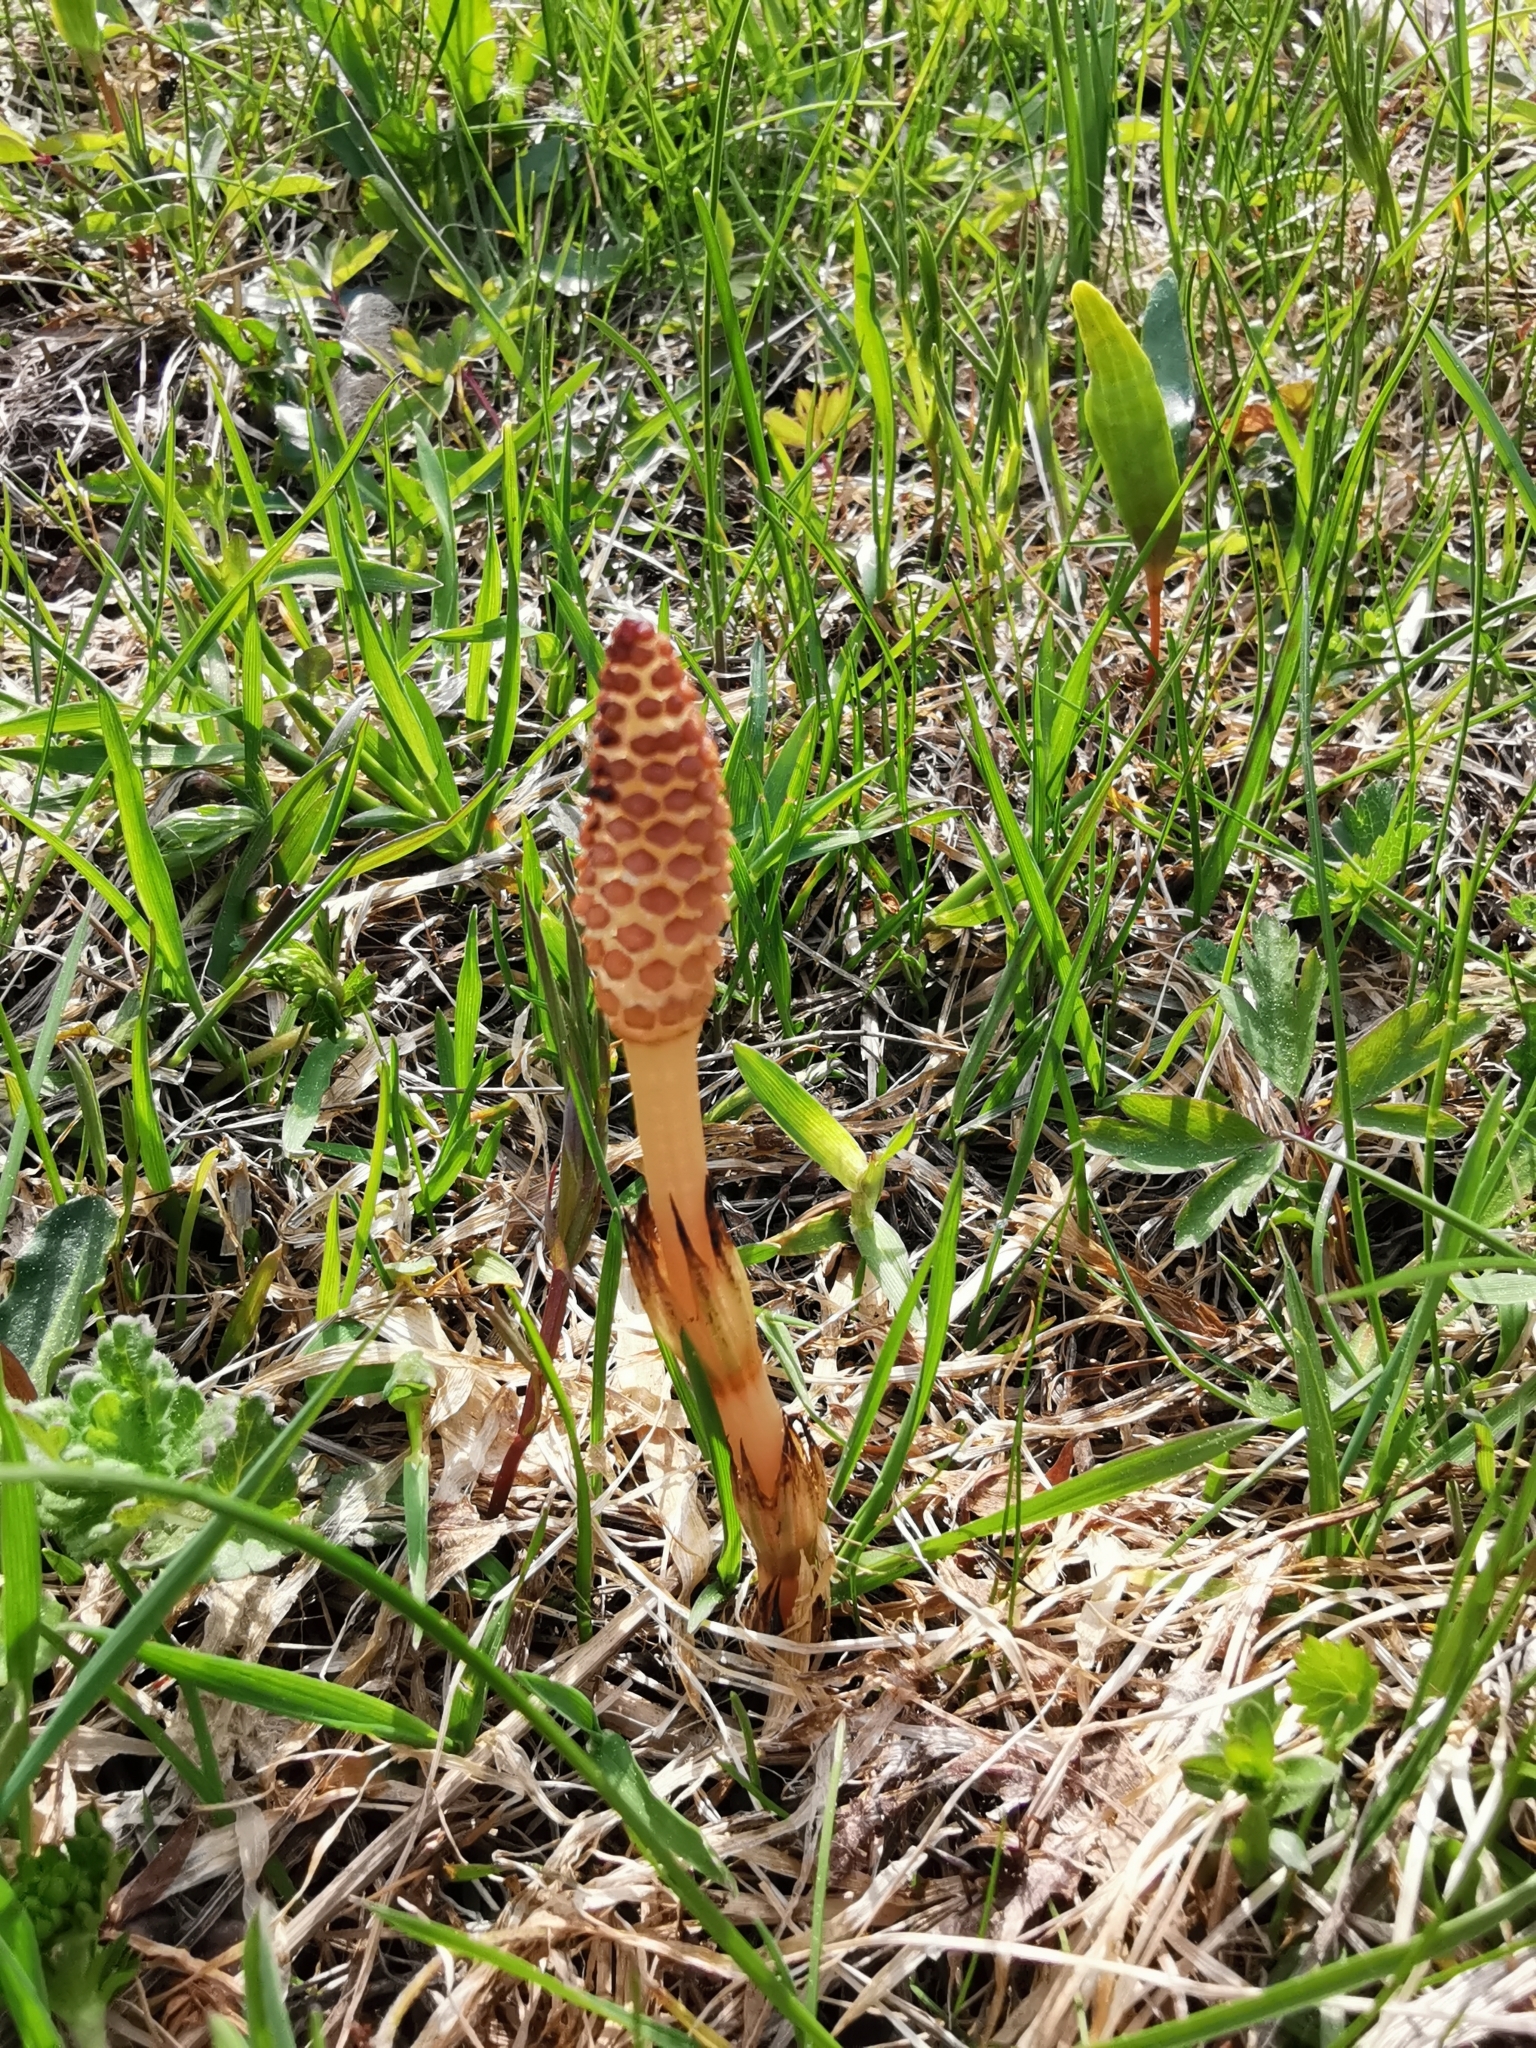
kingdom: Plantae
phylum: Tracheophyta
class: Polypodiopsida
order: Equisetales
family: Equisetaceae
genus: Equisetum
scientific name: Equisetum arvense
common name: Field horsetail
